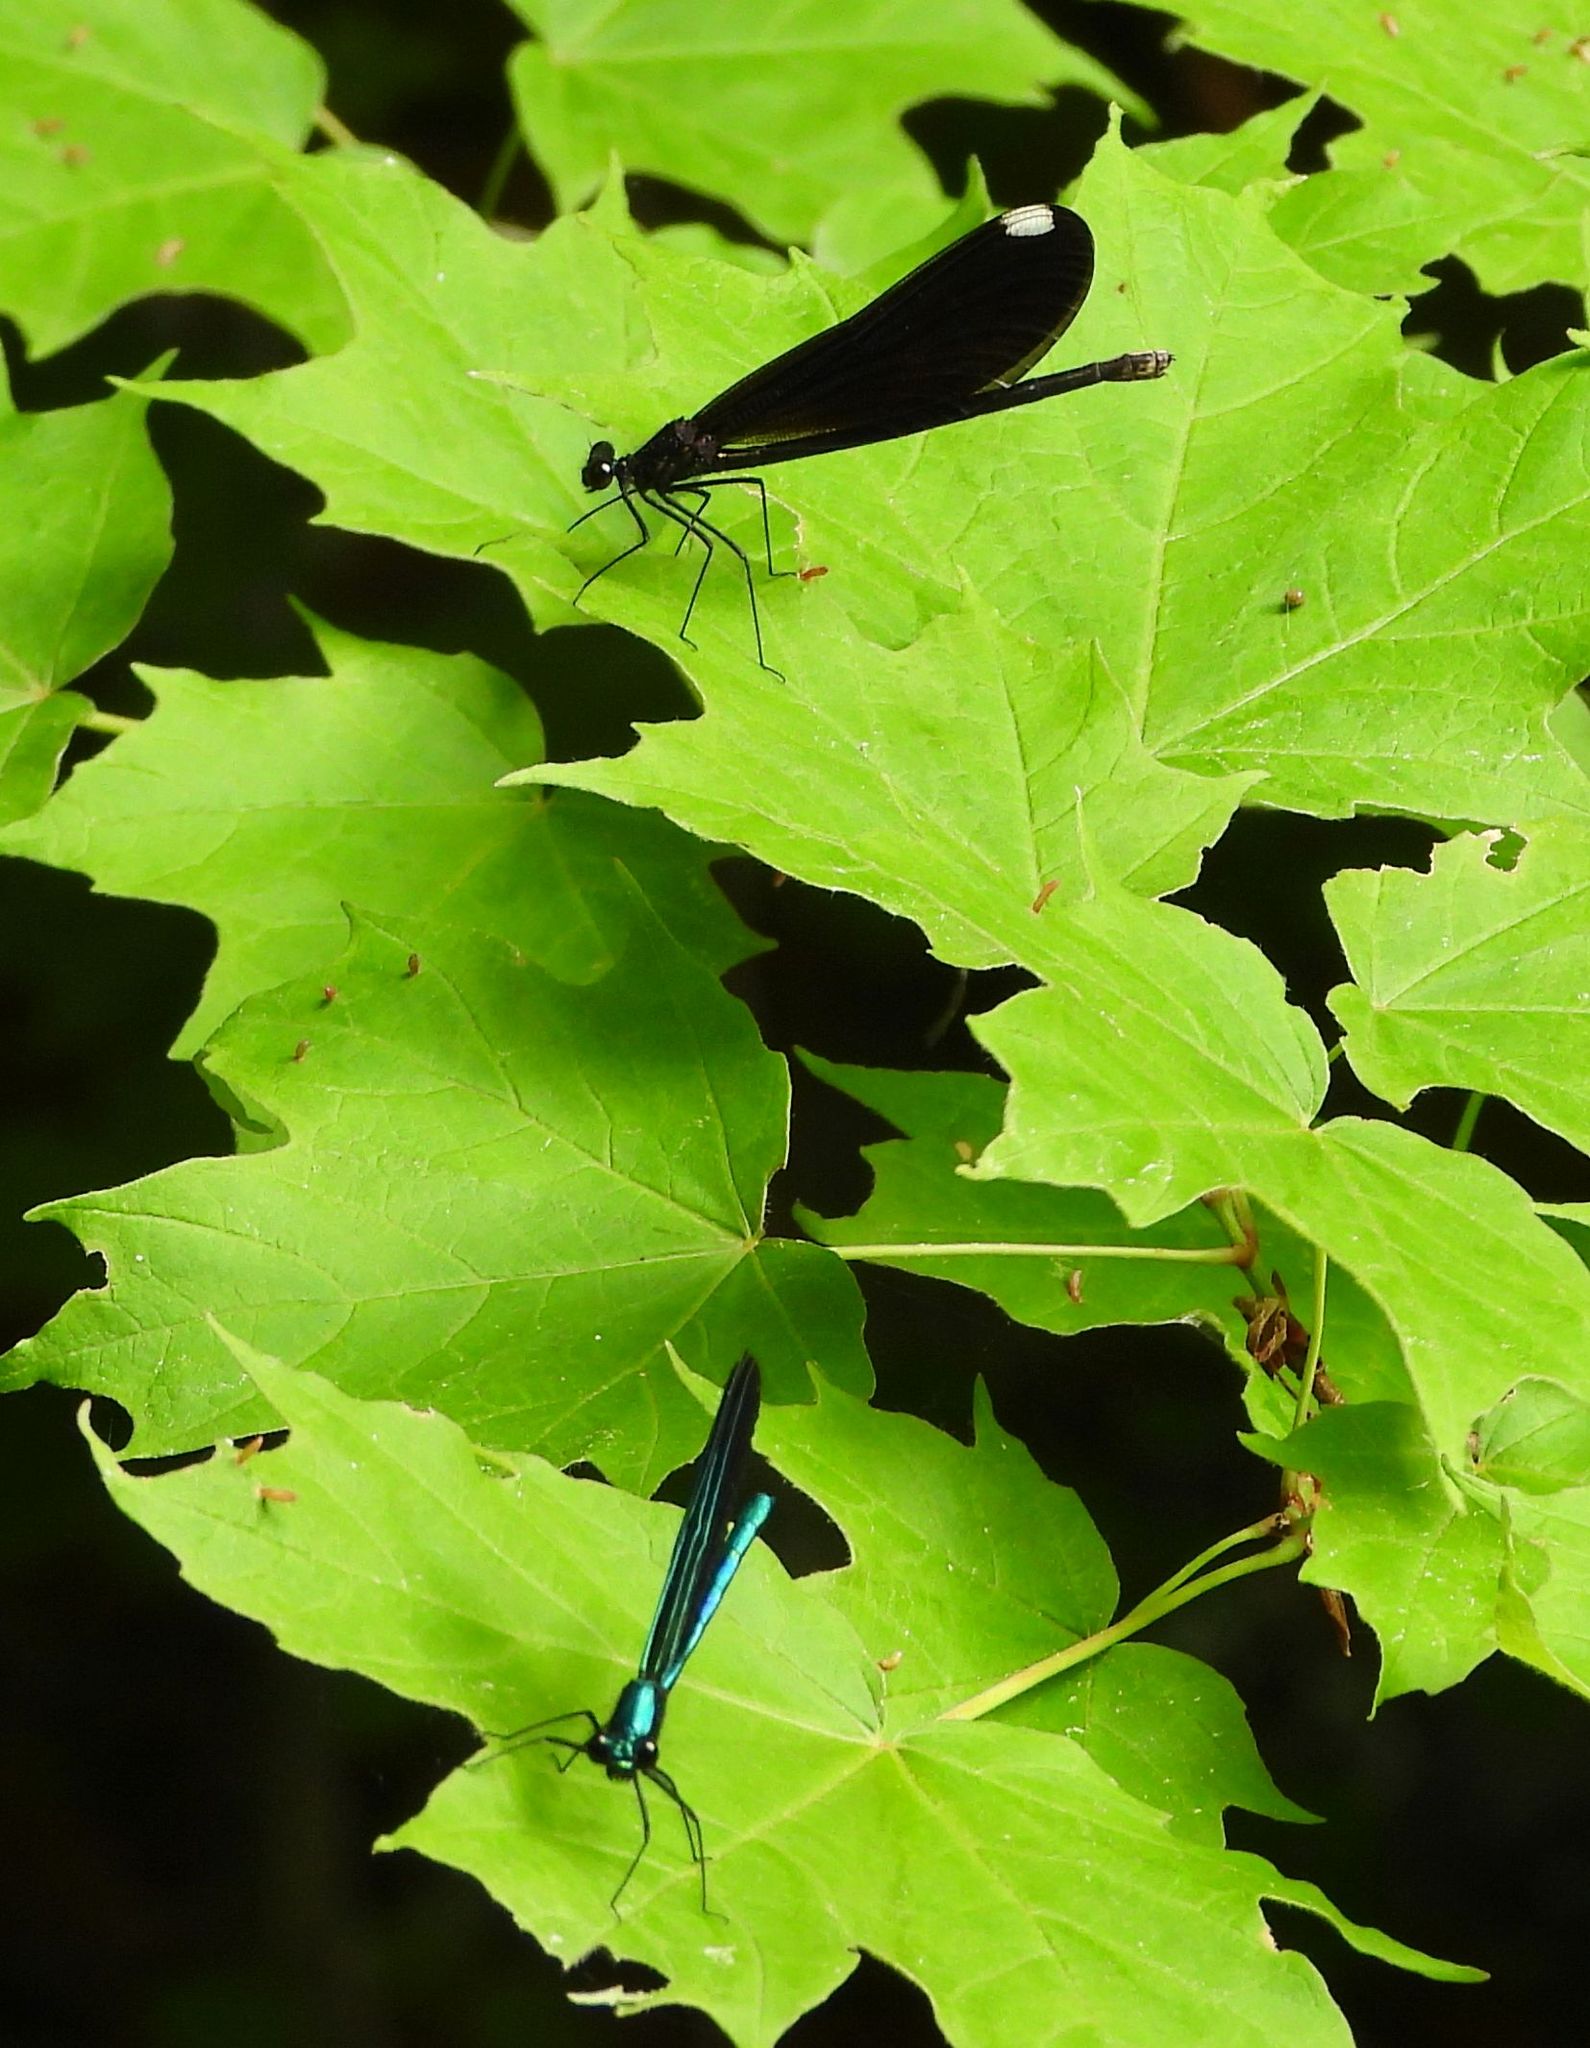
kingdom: Animalia
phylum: Arthropoda
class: Insecta
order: Odonata
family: Calopterygidae
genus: Calopteryx
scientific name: Calopteryx maculata
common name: Ebony jewelwing
